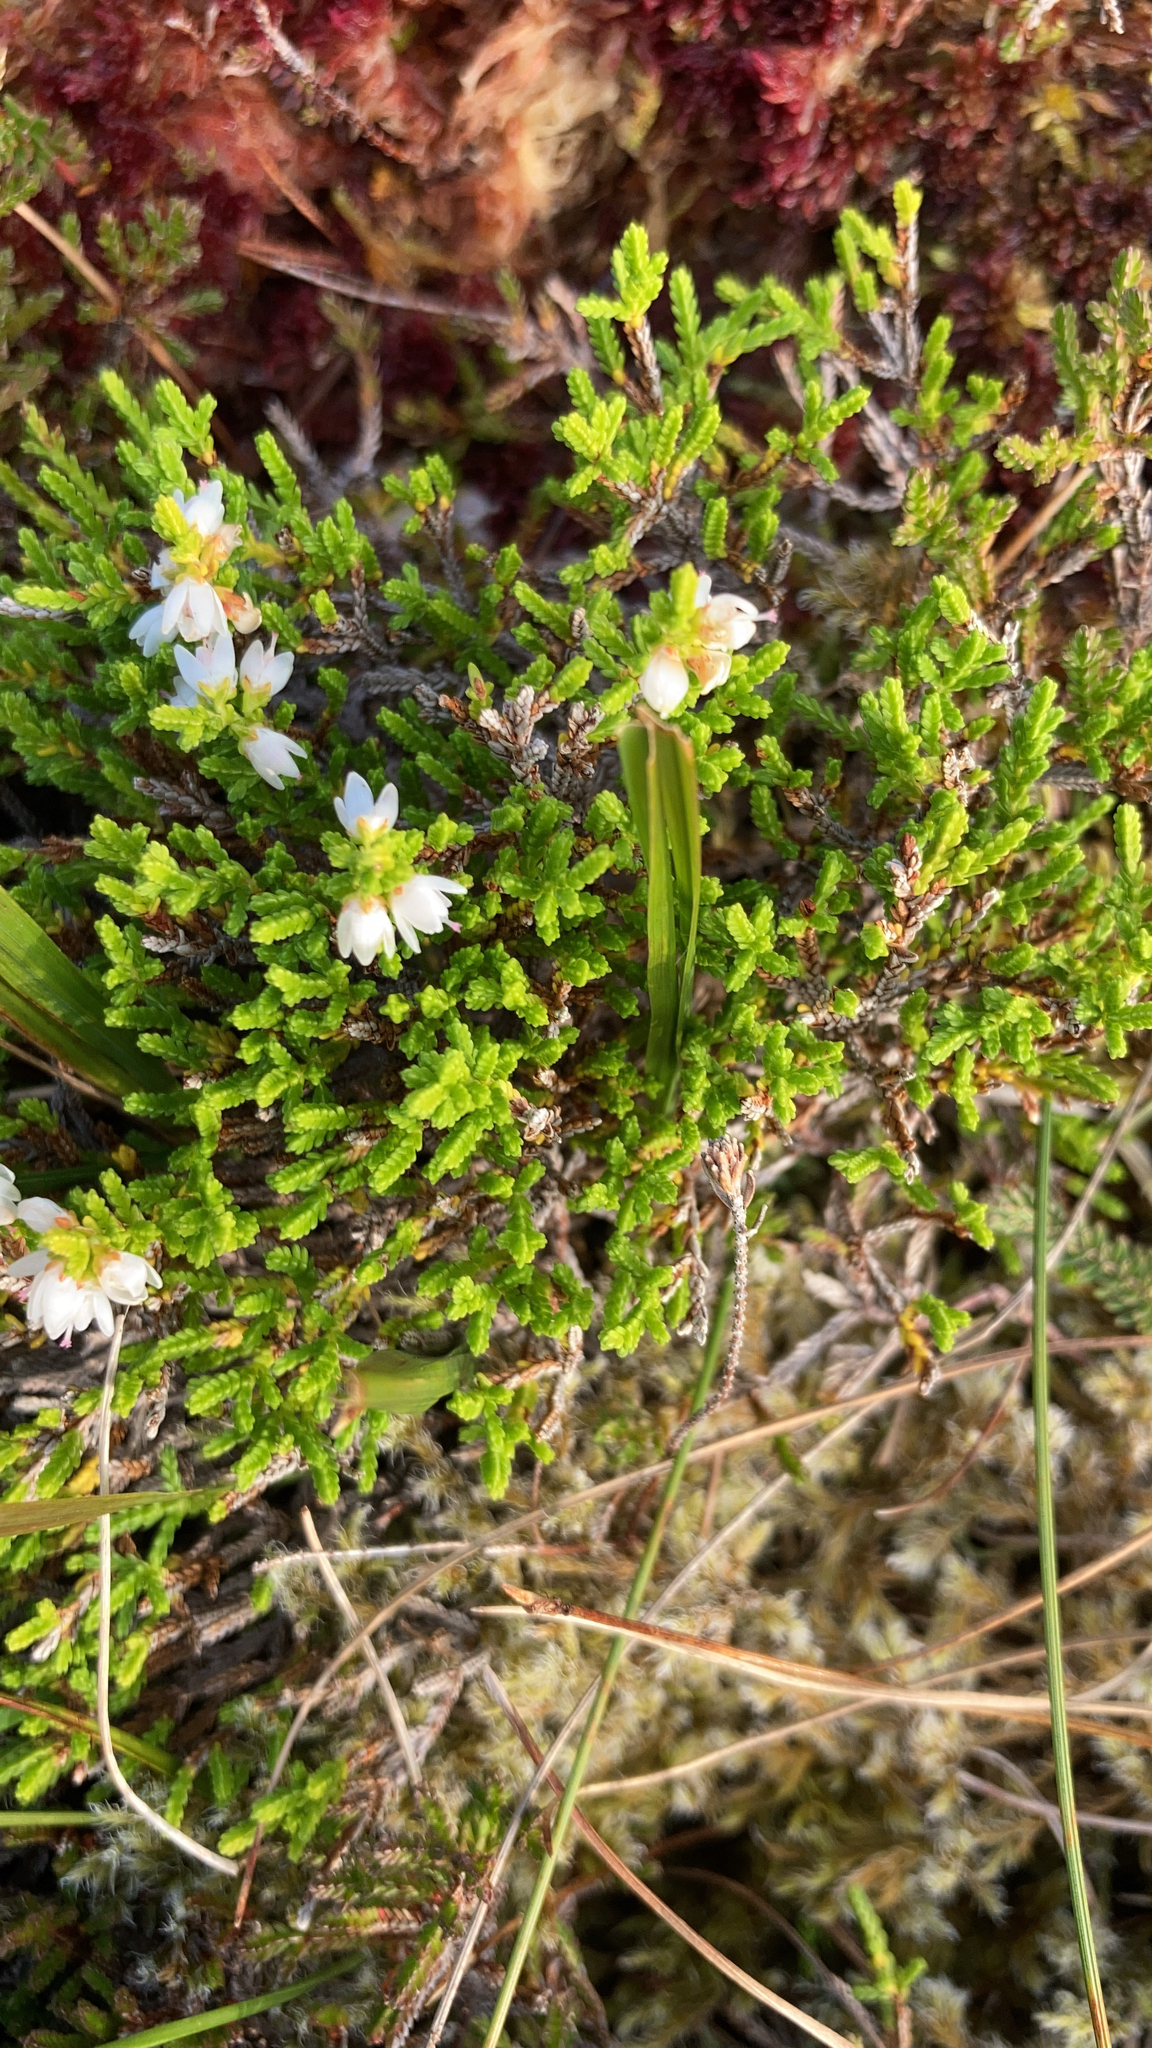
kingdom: Plantae
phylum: Tracheophyta
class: Magnoliopsida
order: Ericales
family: Ericaceae
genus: Calluna
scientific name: Calluna vulgaris
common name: Heather
